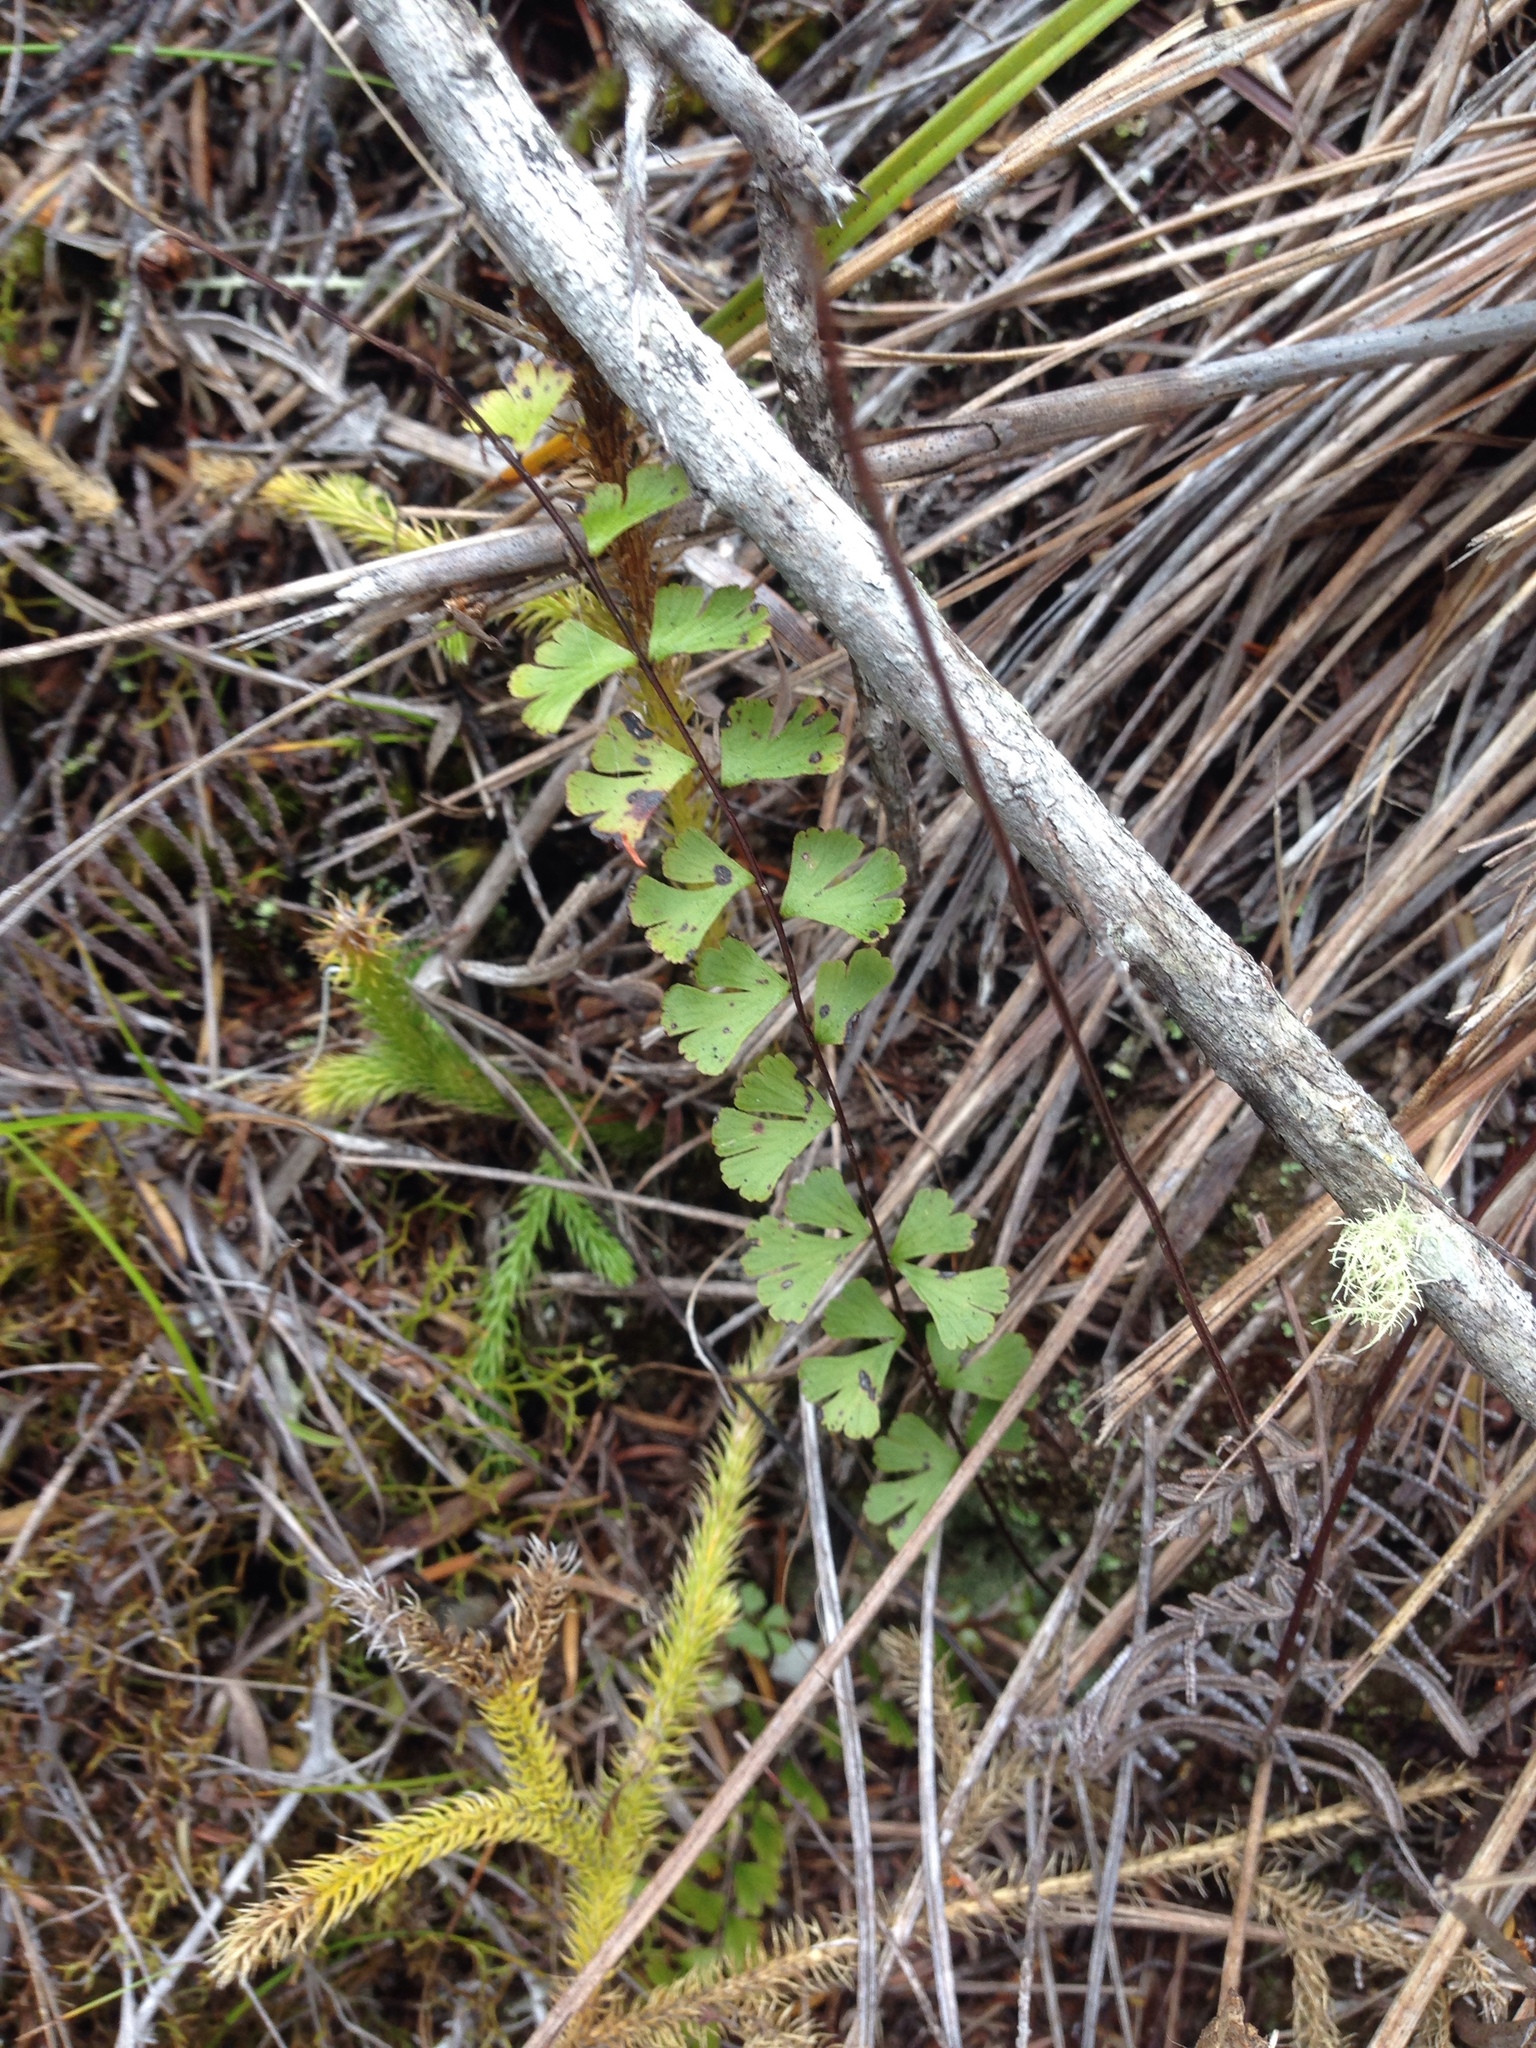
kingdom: Plantae
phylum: Tracheophyta
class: Polypodiopsida
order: Polypodiales
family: Lindsaeaceae
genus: Lindsaea
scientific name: Lindsaea linearis
